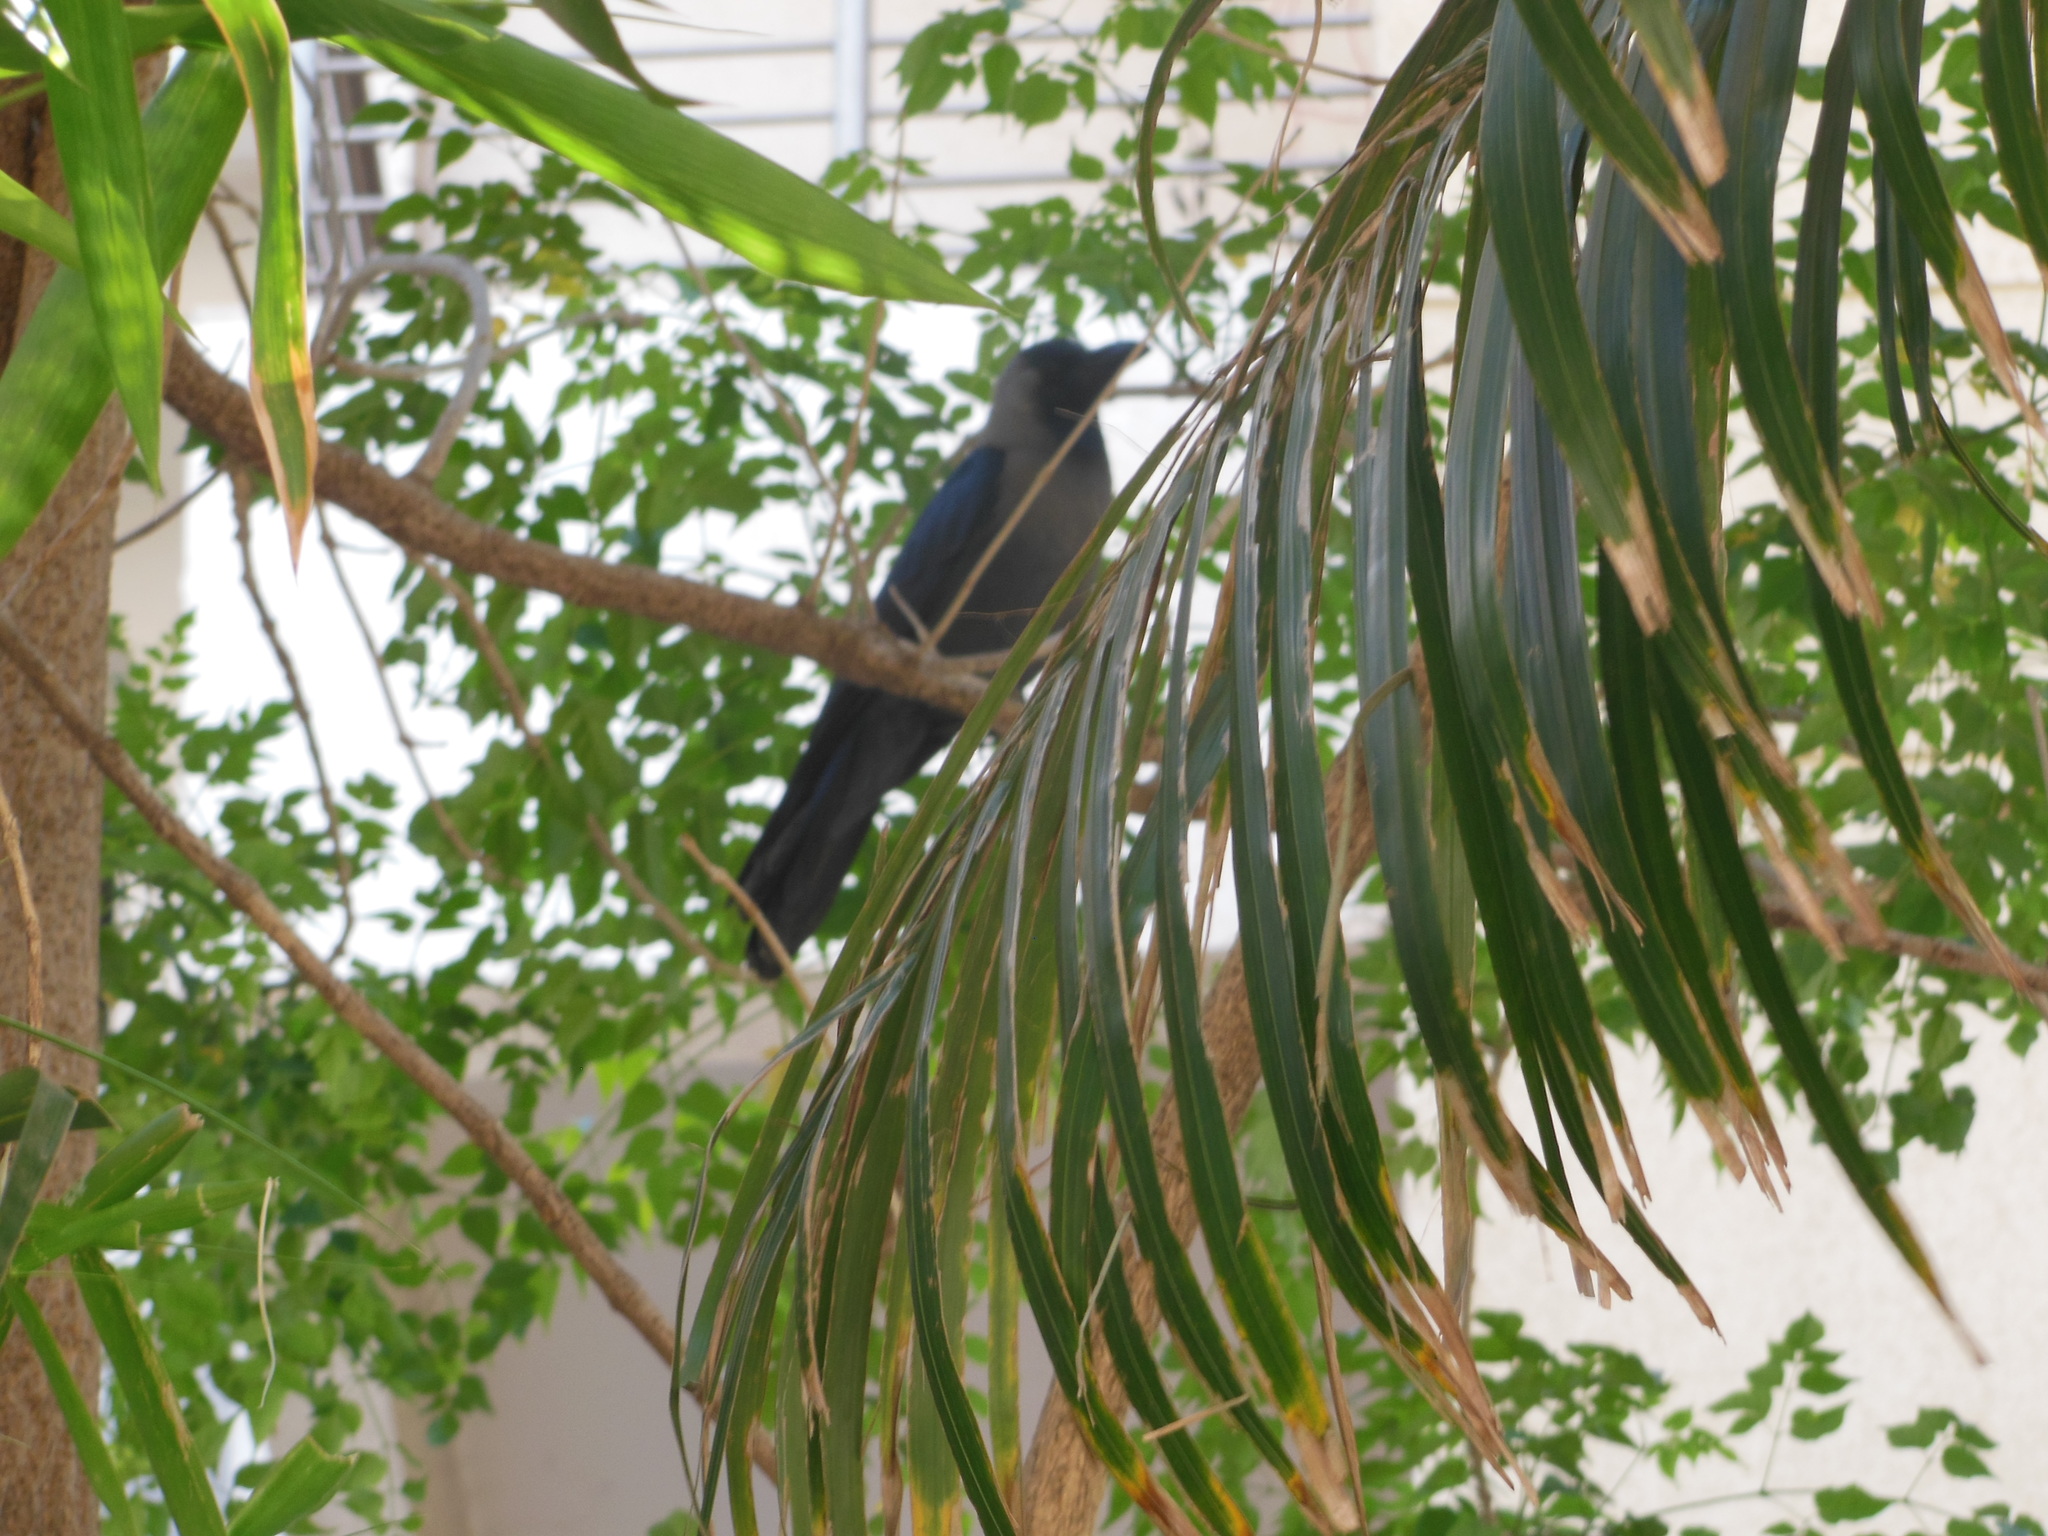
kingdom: Animalia
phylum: Chordata
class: Aves
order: Passeriformes
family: Corvidae
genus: Corvus
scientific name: Corvus splendens
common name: House crow
